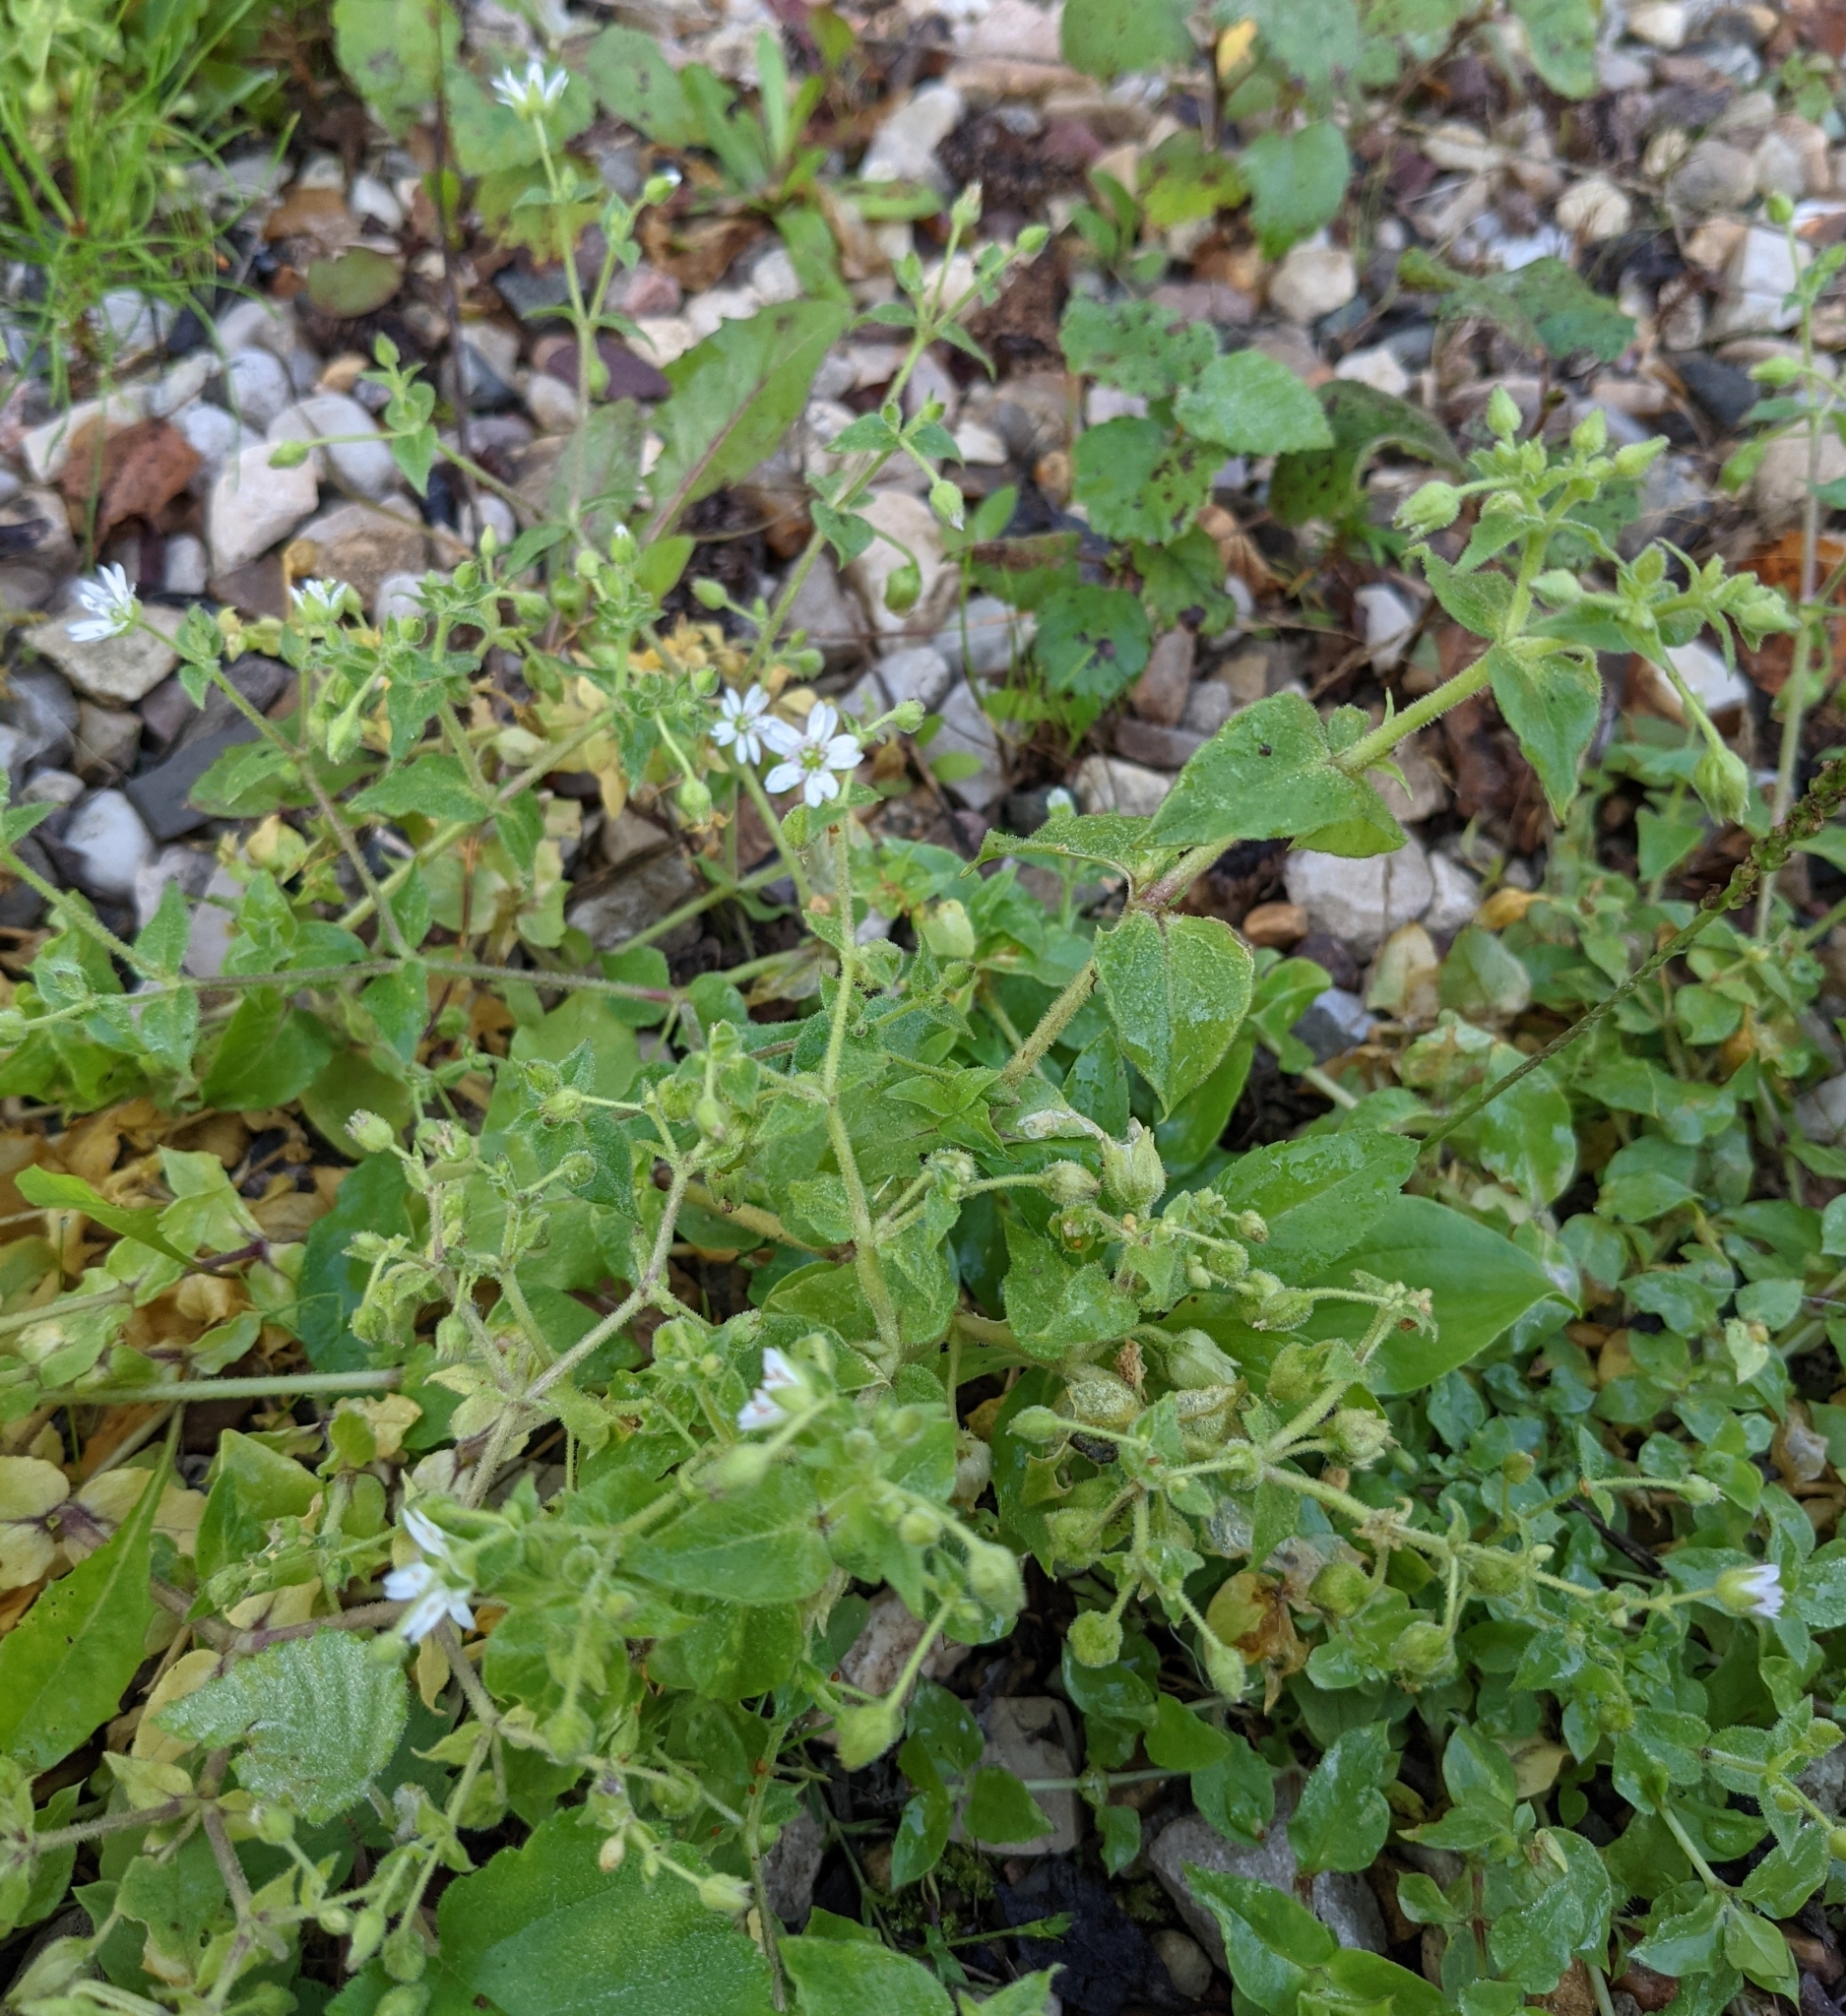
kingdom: Plantae
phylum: Tracheophyta
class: Magnoliopsida
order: Caryophyllales
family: Caryophyllaceae
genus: Stellaria
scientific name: Stellaria aquatica
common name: Water chickweed
